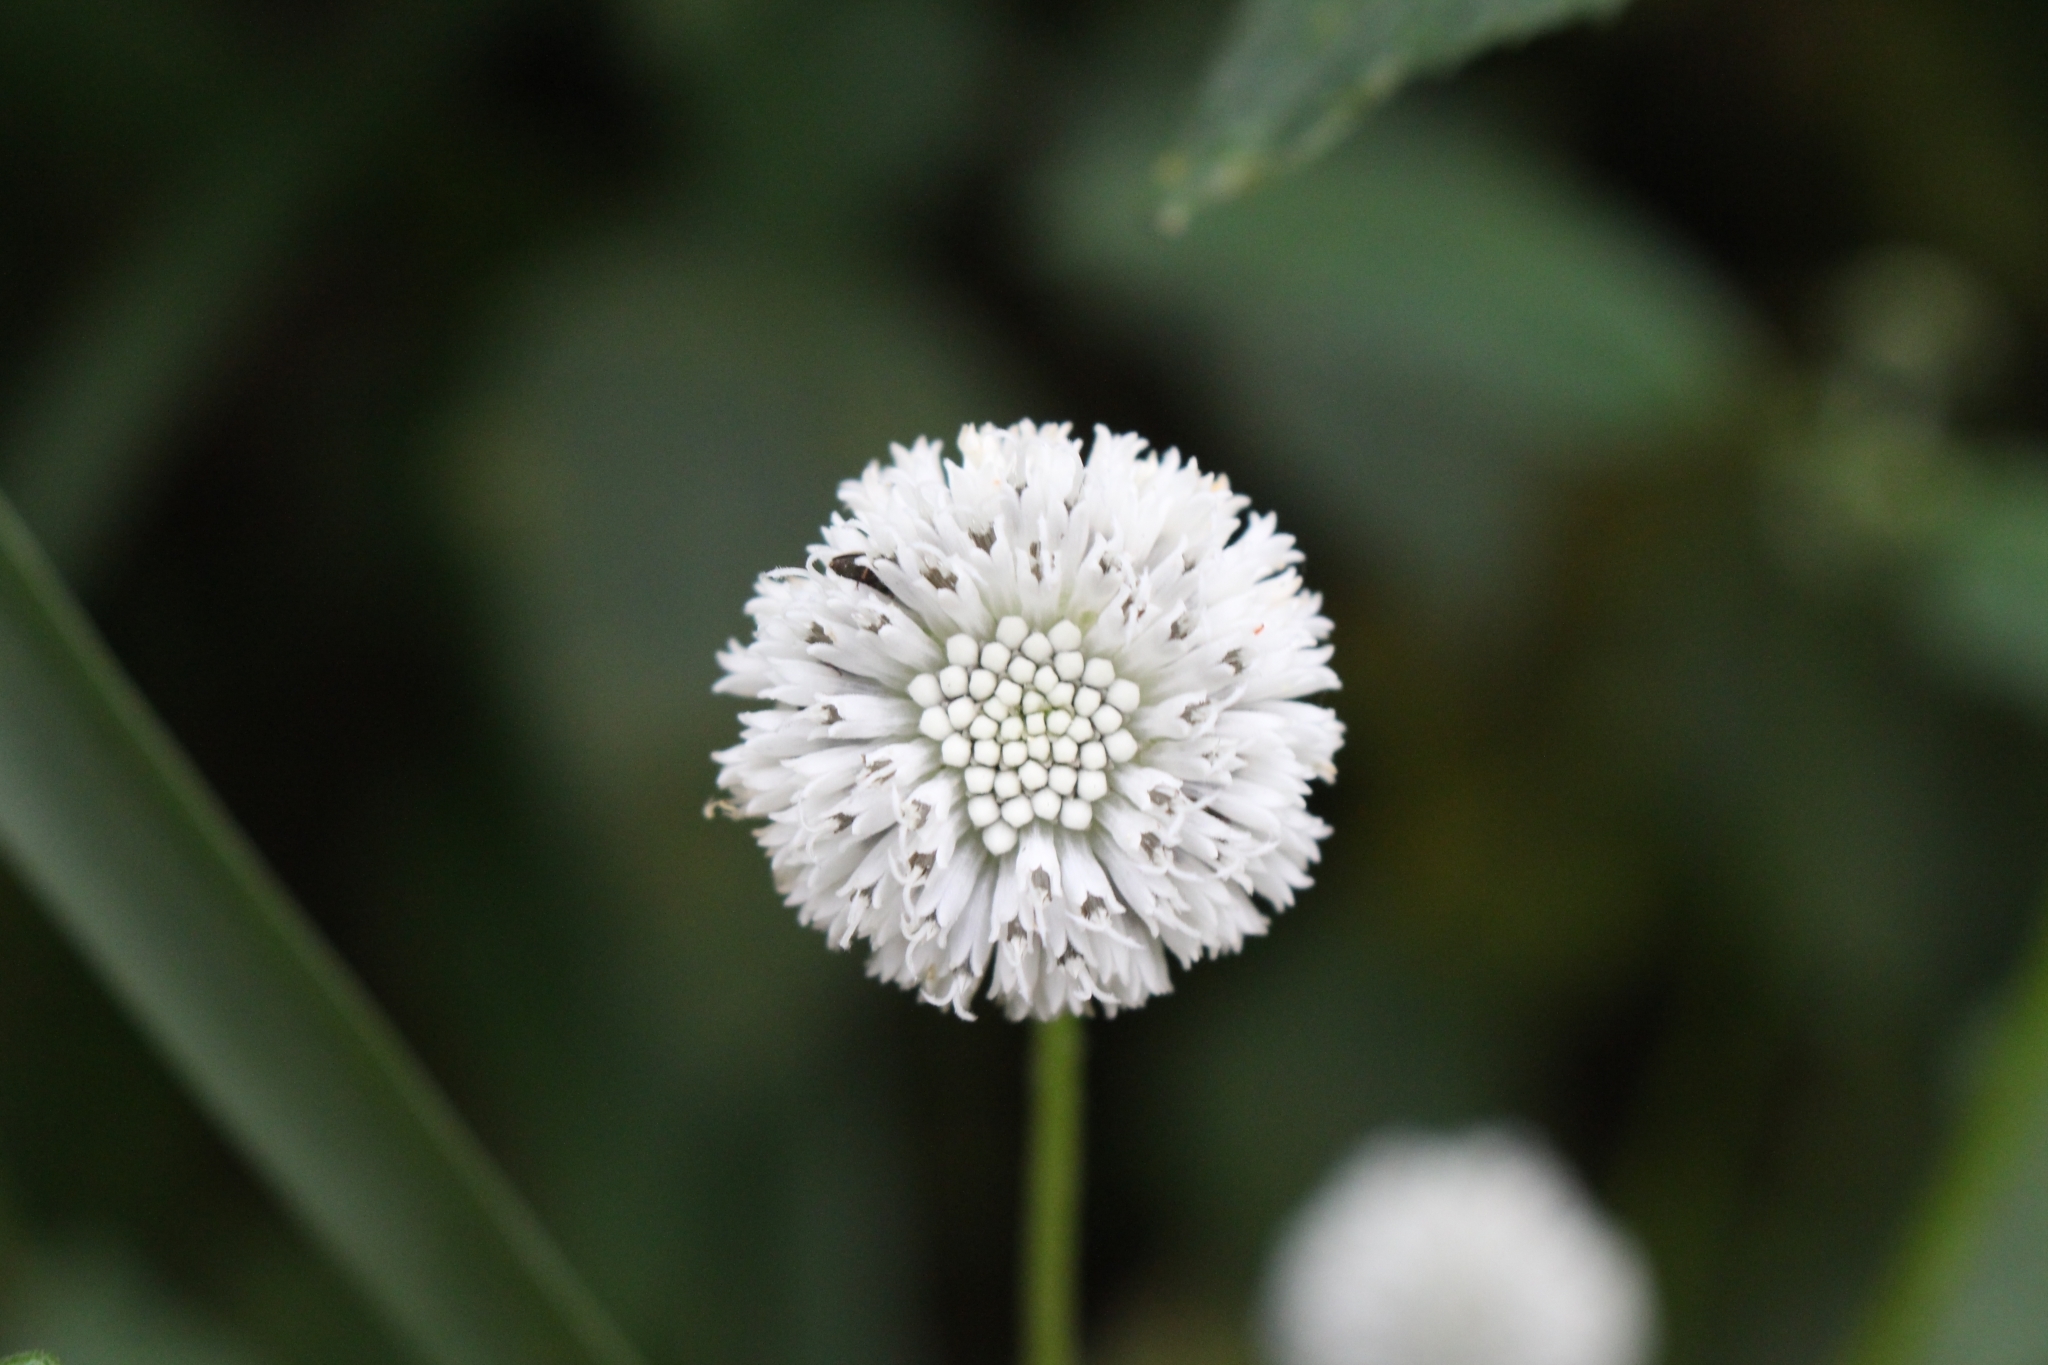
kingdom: Plantae
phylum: Tracheophyta
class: Magnoliopsida
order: Asterales
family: Asteraceae
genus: Melanthera
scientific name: Melanthera nivea
